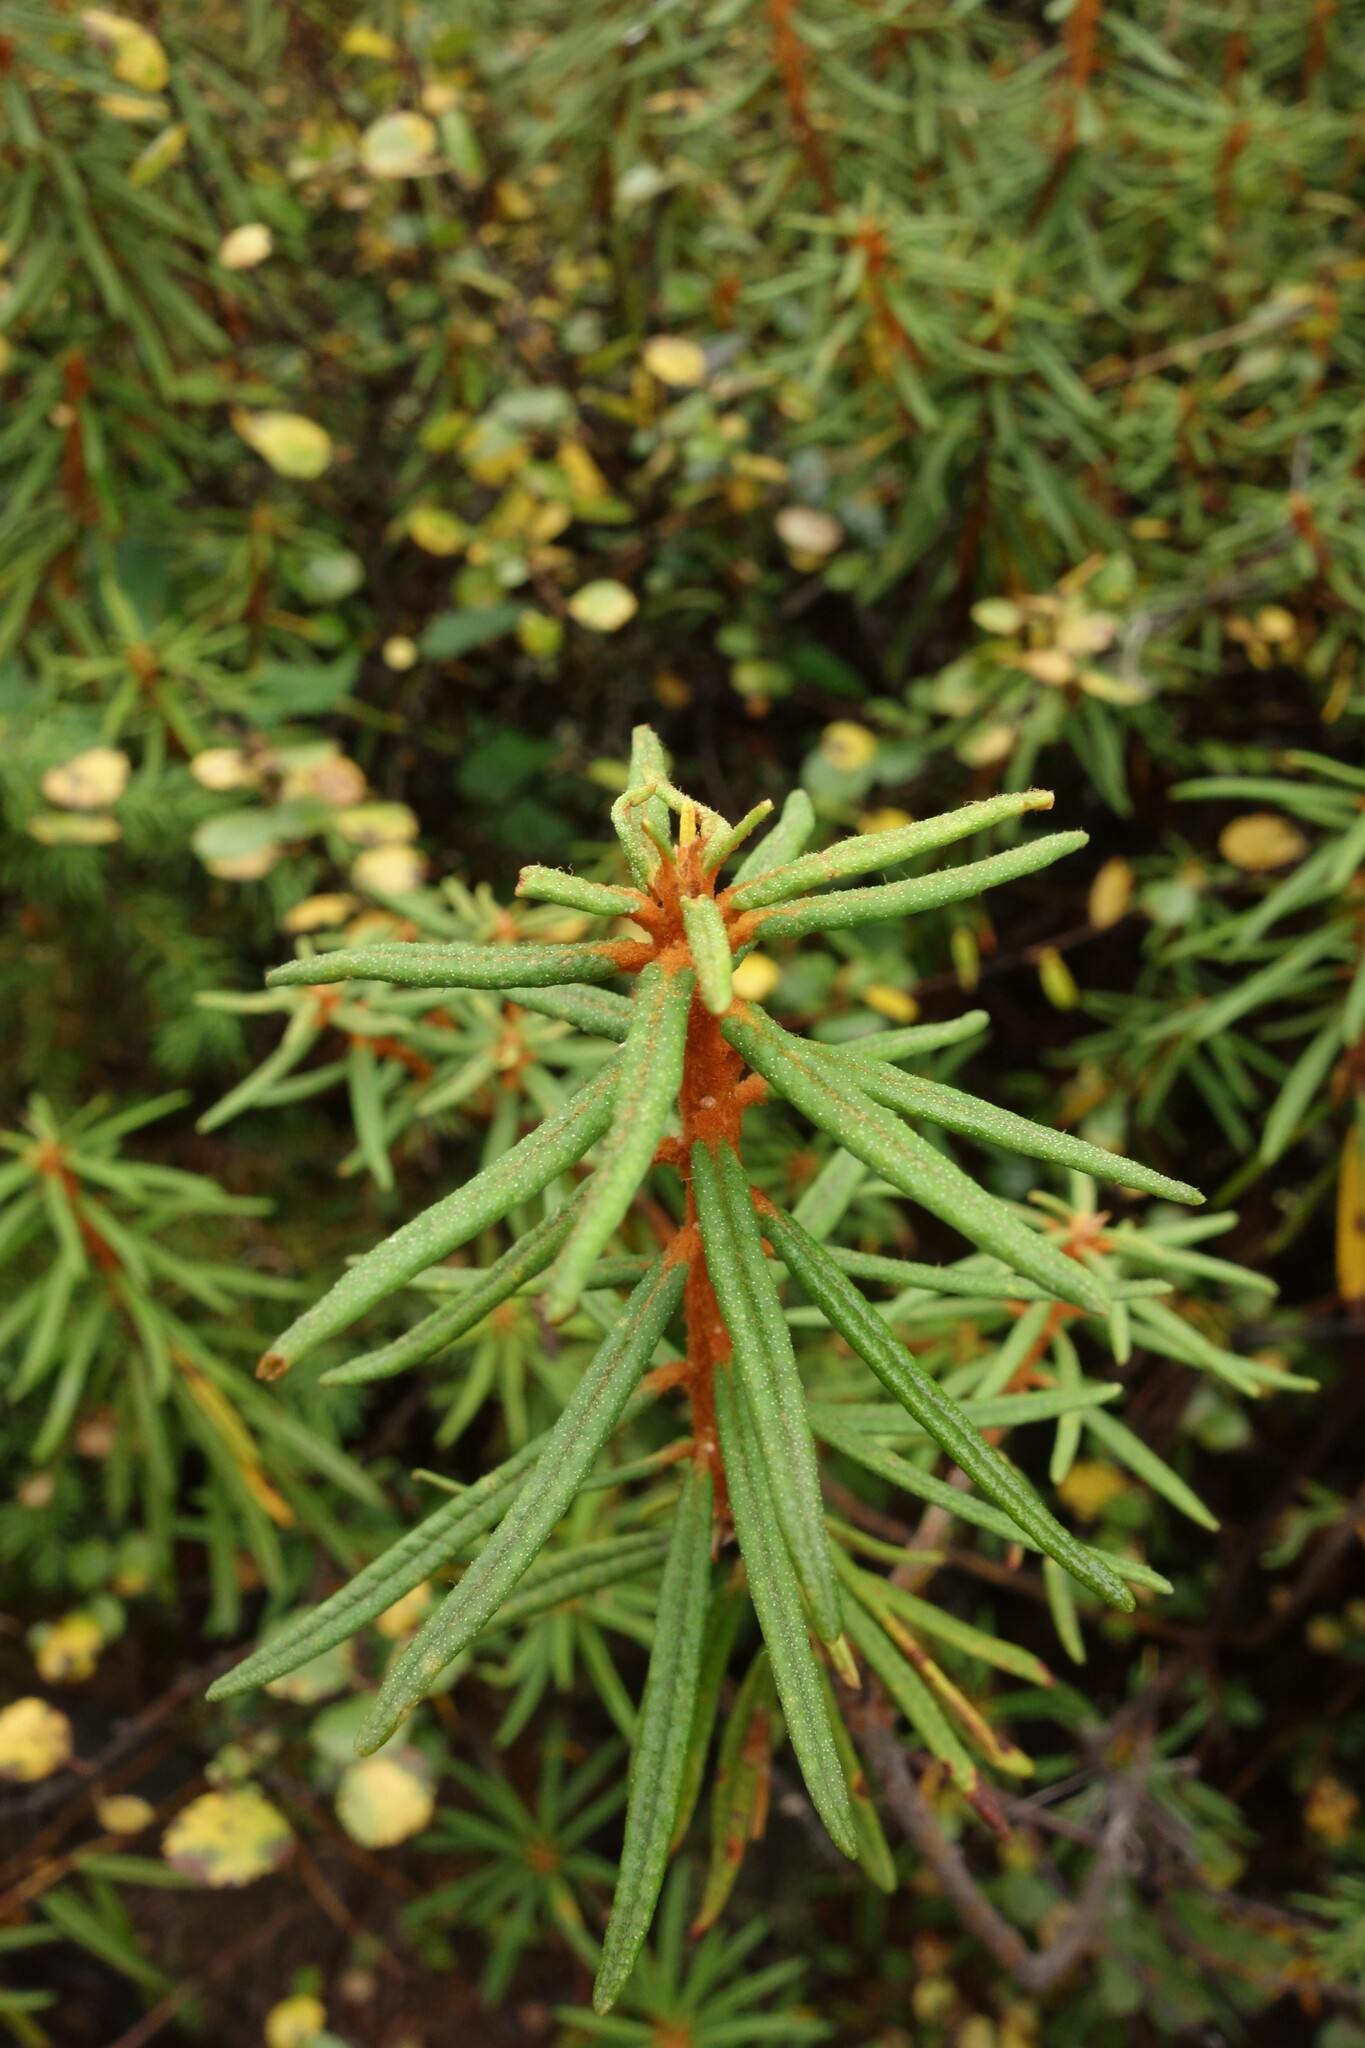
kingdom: Plantae
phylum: Tracheophyta
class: Magnoliopsida
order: Ericales
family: Ericaceae
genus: Rhododendron
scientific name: Rhododendron tomentosum
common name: Marsh labrador tea
